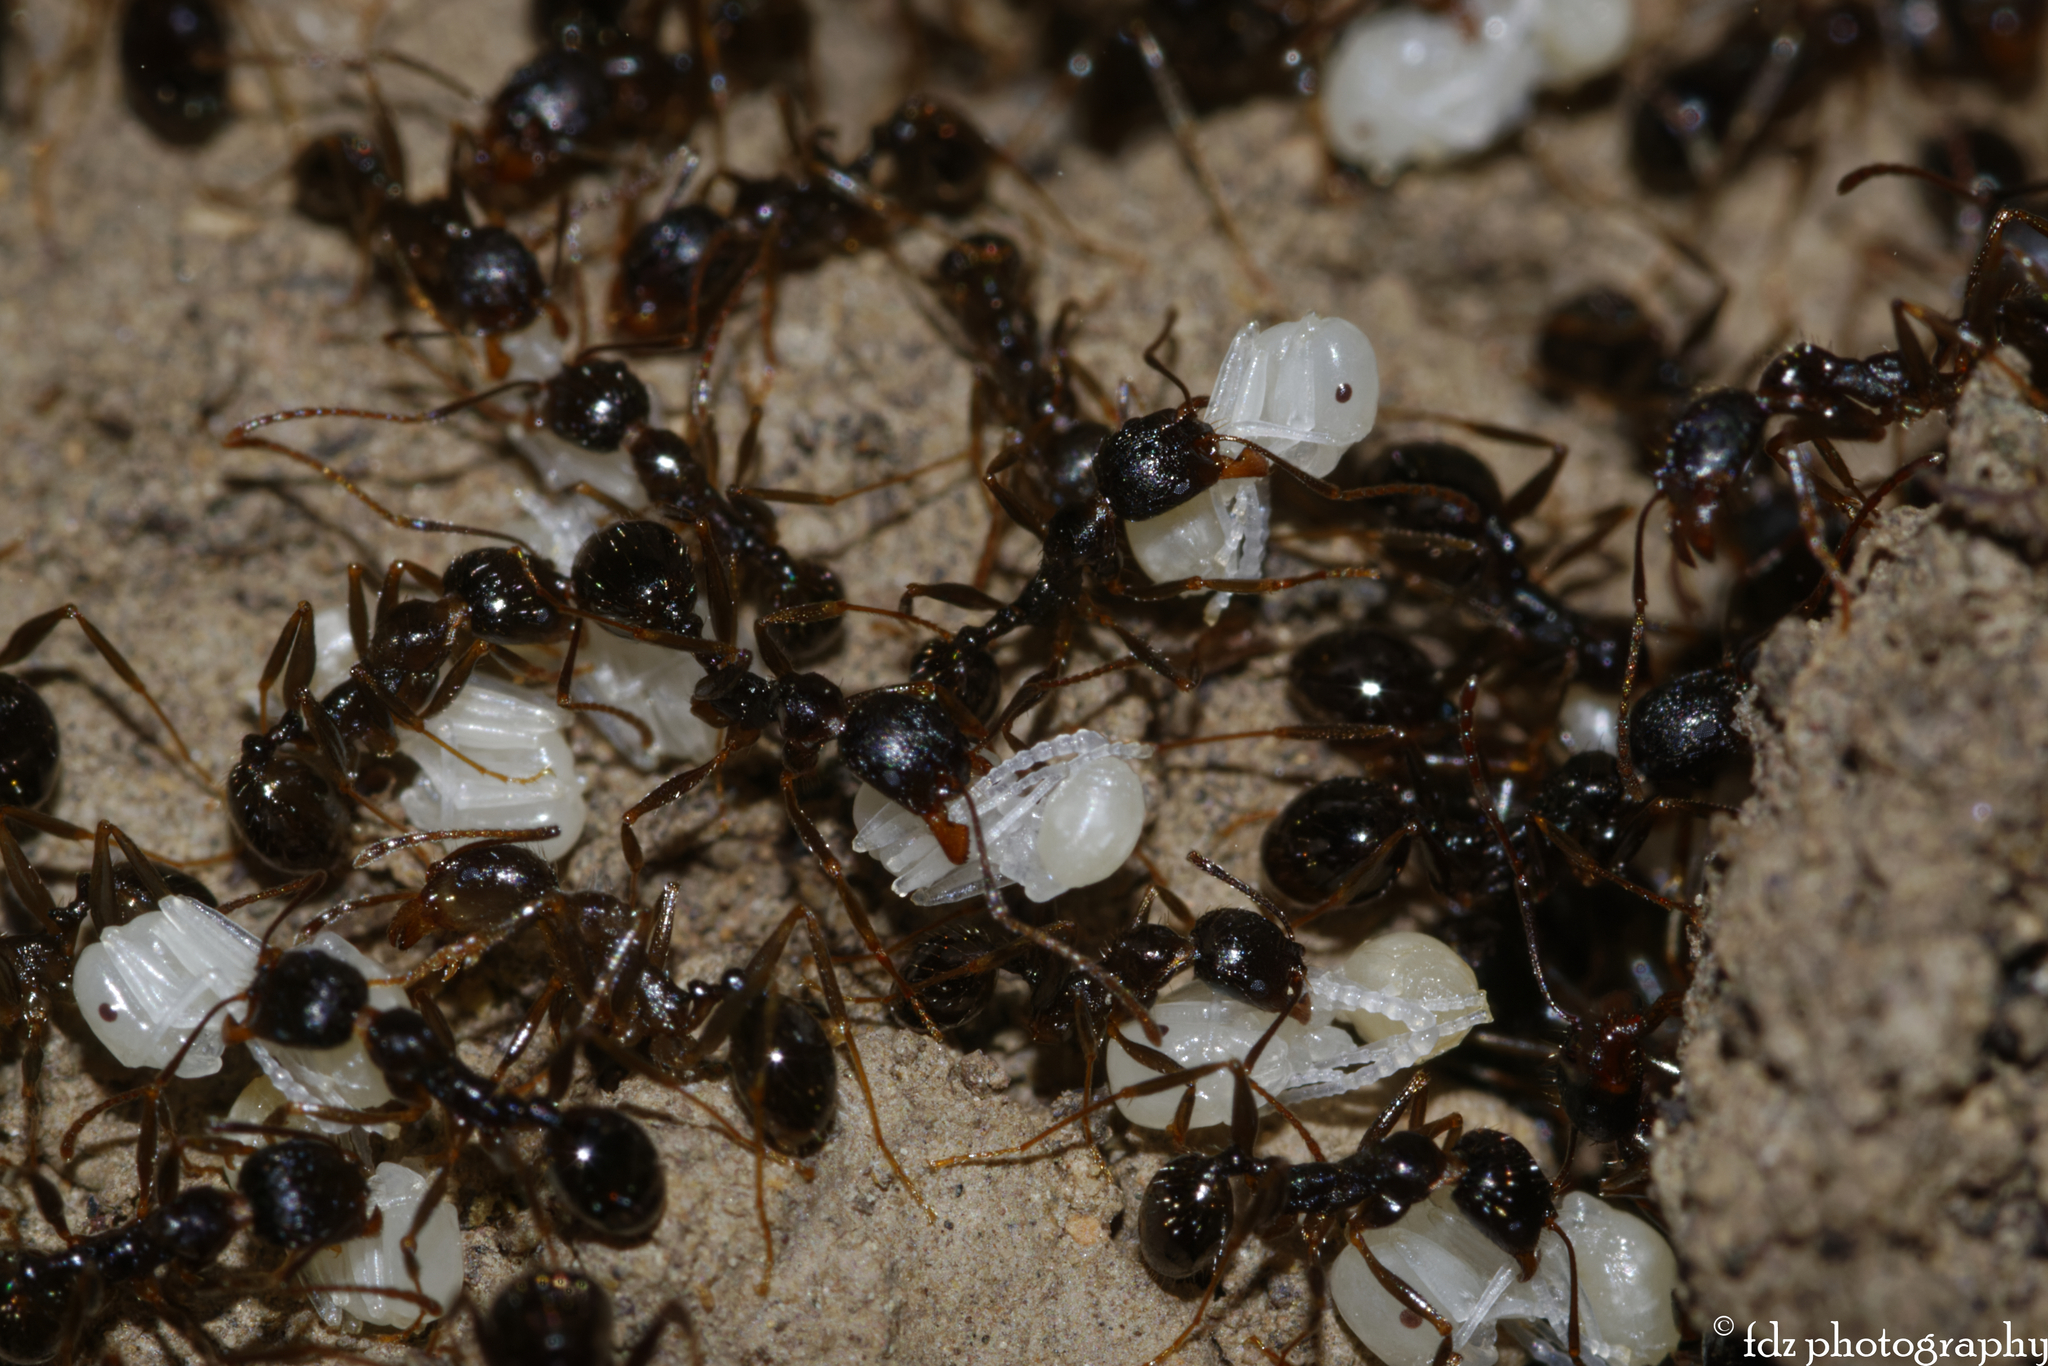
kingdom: Animalia
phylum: Arthropoda
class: Insecta
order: Hymenoptera
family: Formicidae
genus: Aphaenogaster
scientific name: Aphaenogaster gibbosa
